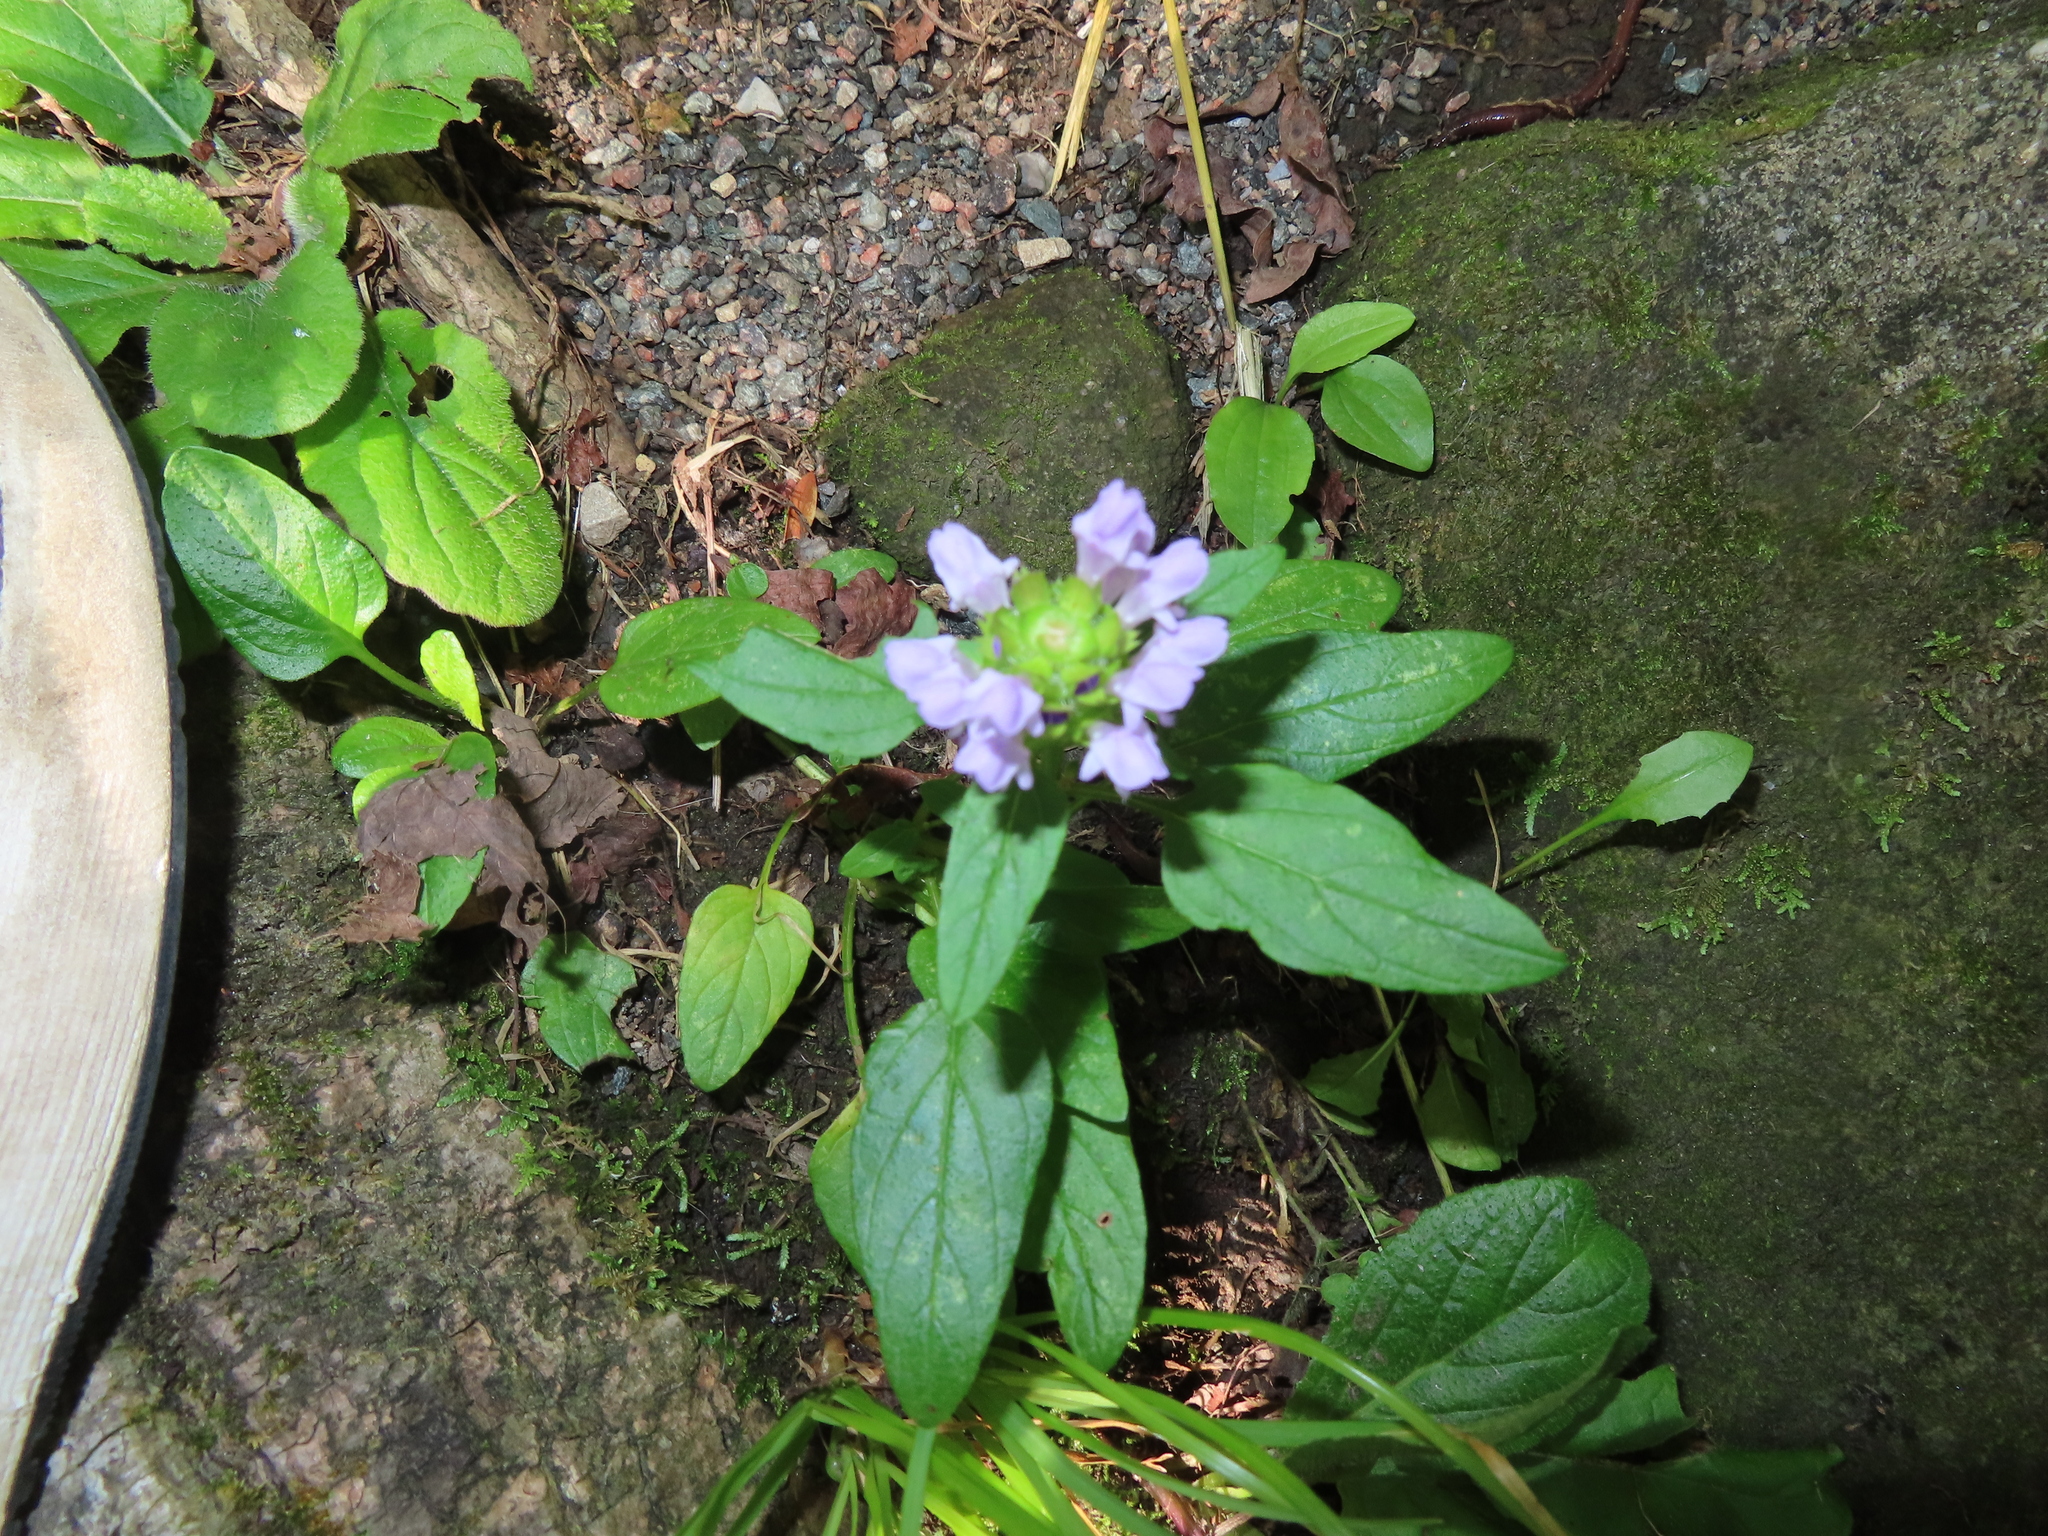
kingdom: Plantae
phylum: Tracheophyta
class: Magnoliopsida
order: Lamiales
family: Lamiaceae
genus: Prunella
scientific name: Prunella vulgaris
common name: Heal-all
